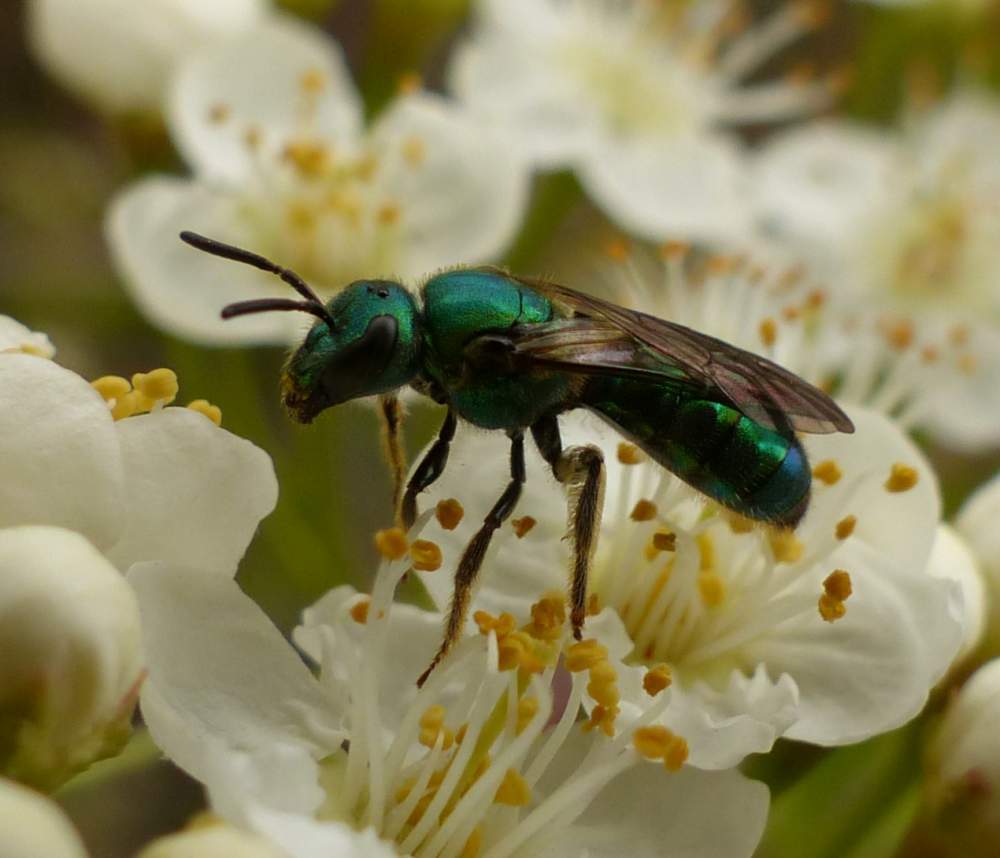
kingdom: Animalia
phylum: Arthropoda
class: Insecta
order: Hymenoptera
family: Halictidae
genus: Augochlora
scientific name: Augochlora pura
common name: Pure green sweat bee
